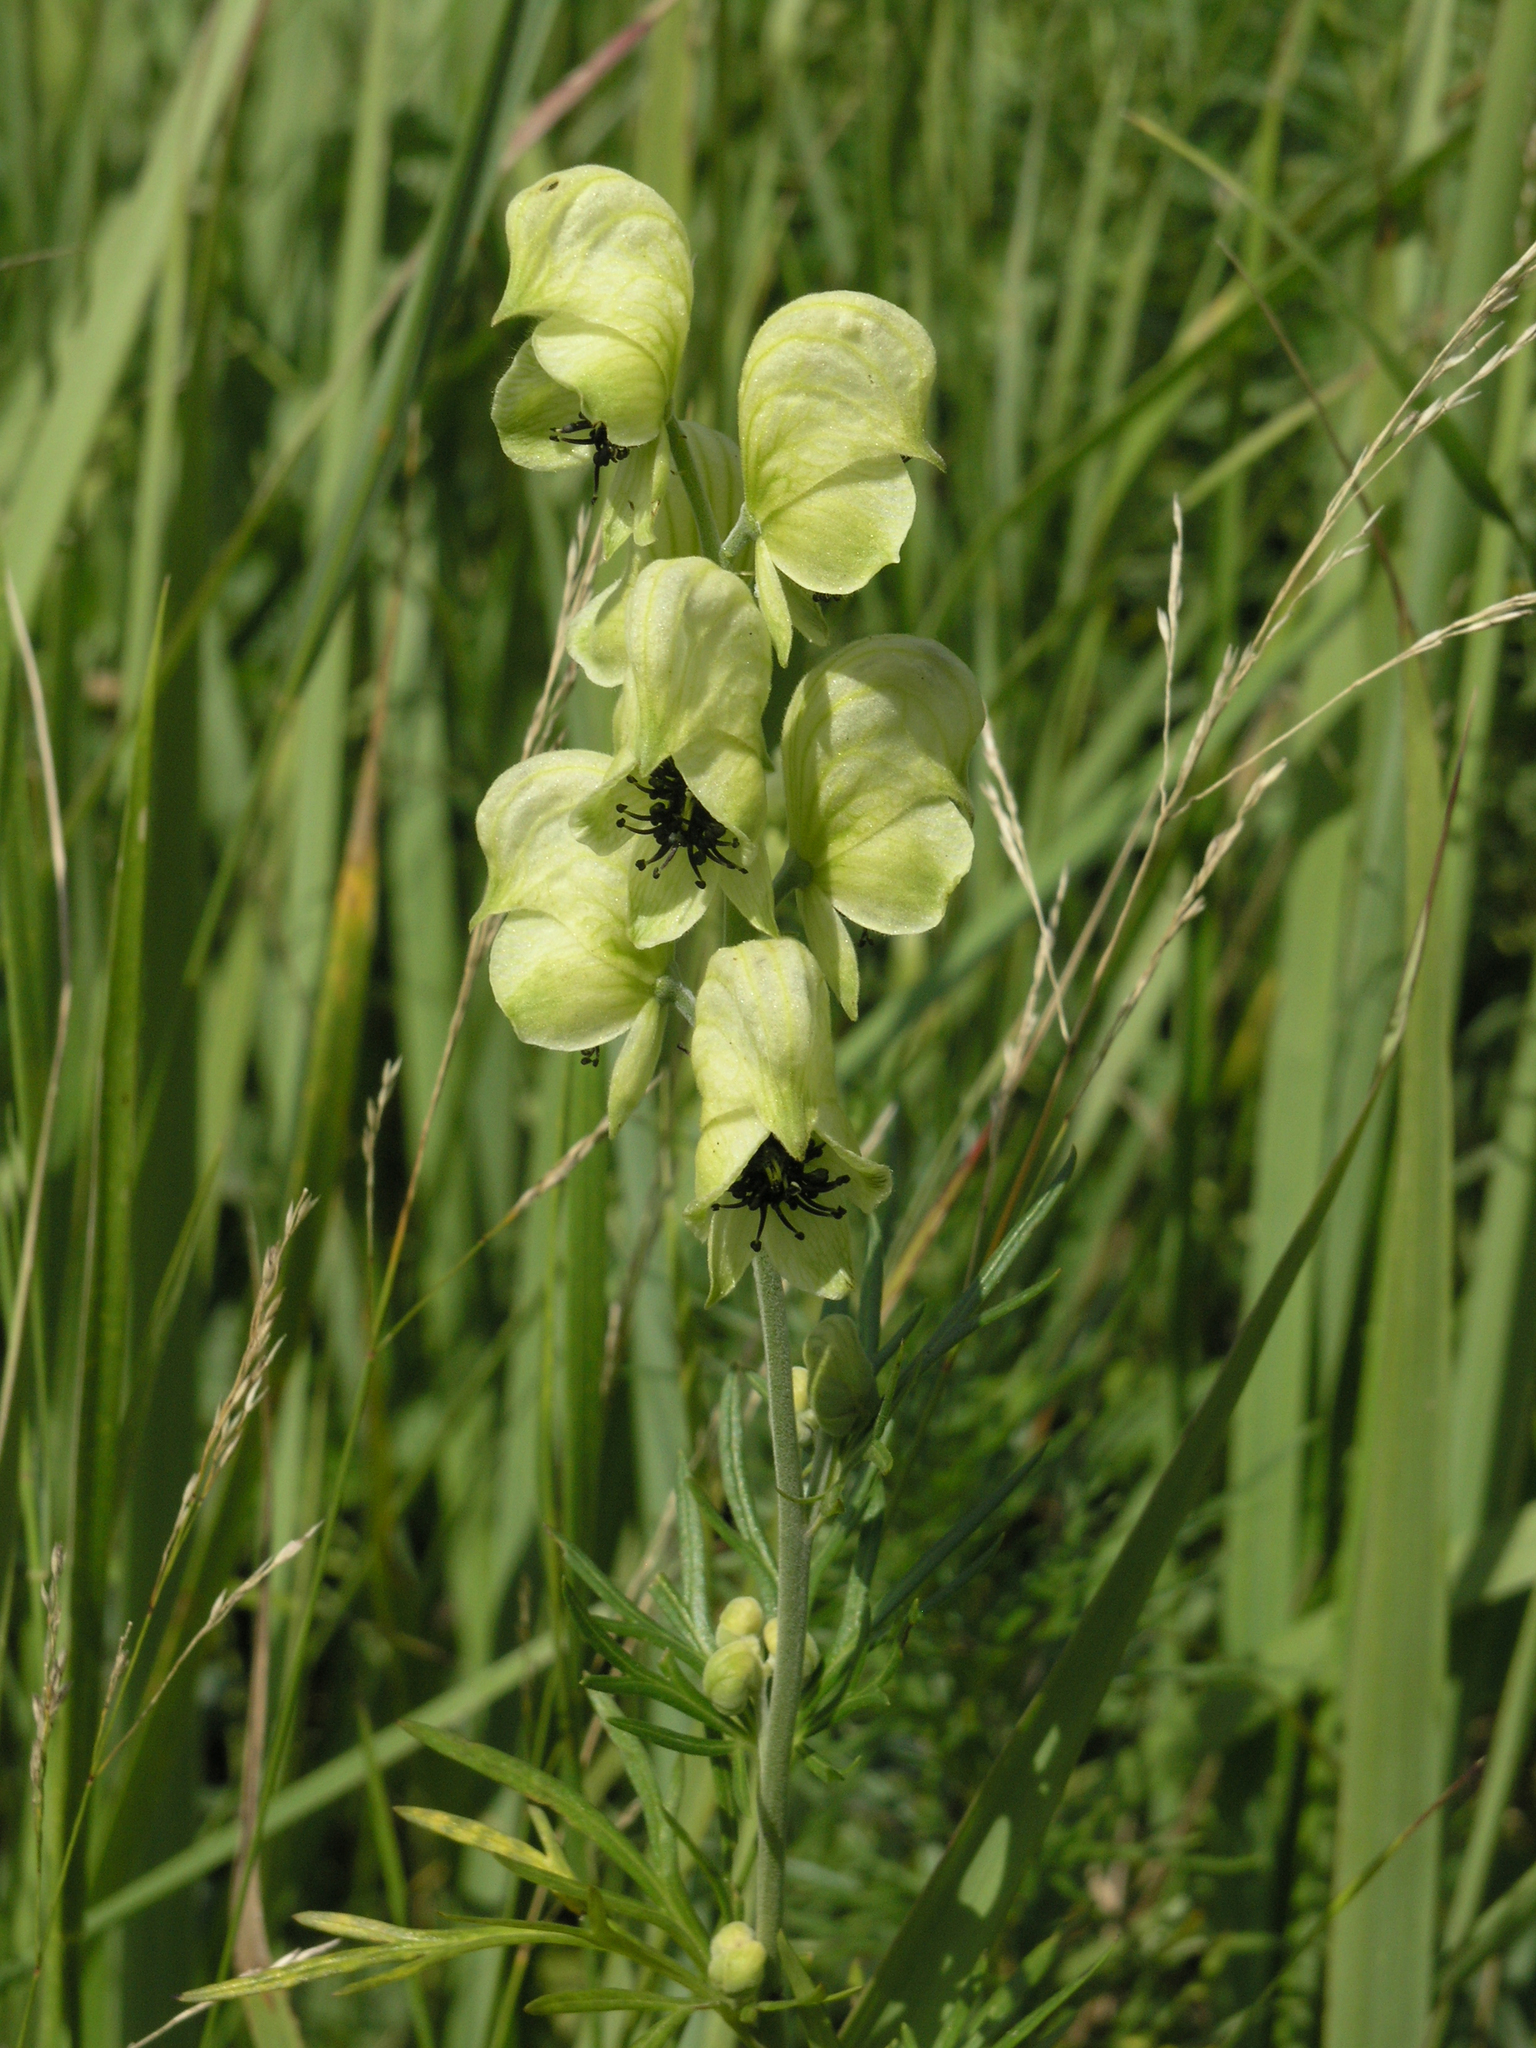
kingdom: Plantae
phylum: Tracheophyta
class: Magnoliopsida
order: Ranunculales
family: Ranunculaceae
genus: Aconitum
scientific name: Aconitum anthora
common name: Yellow monkshood
